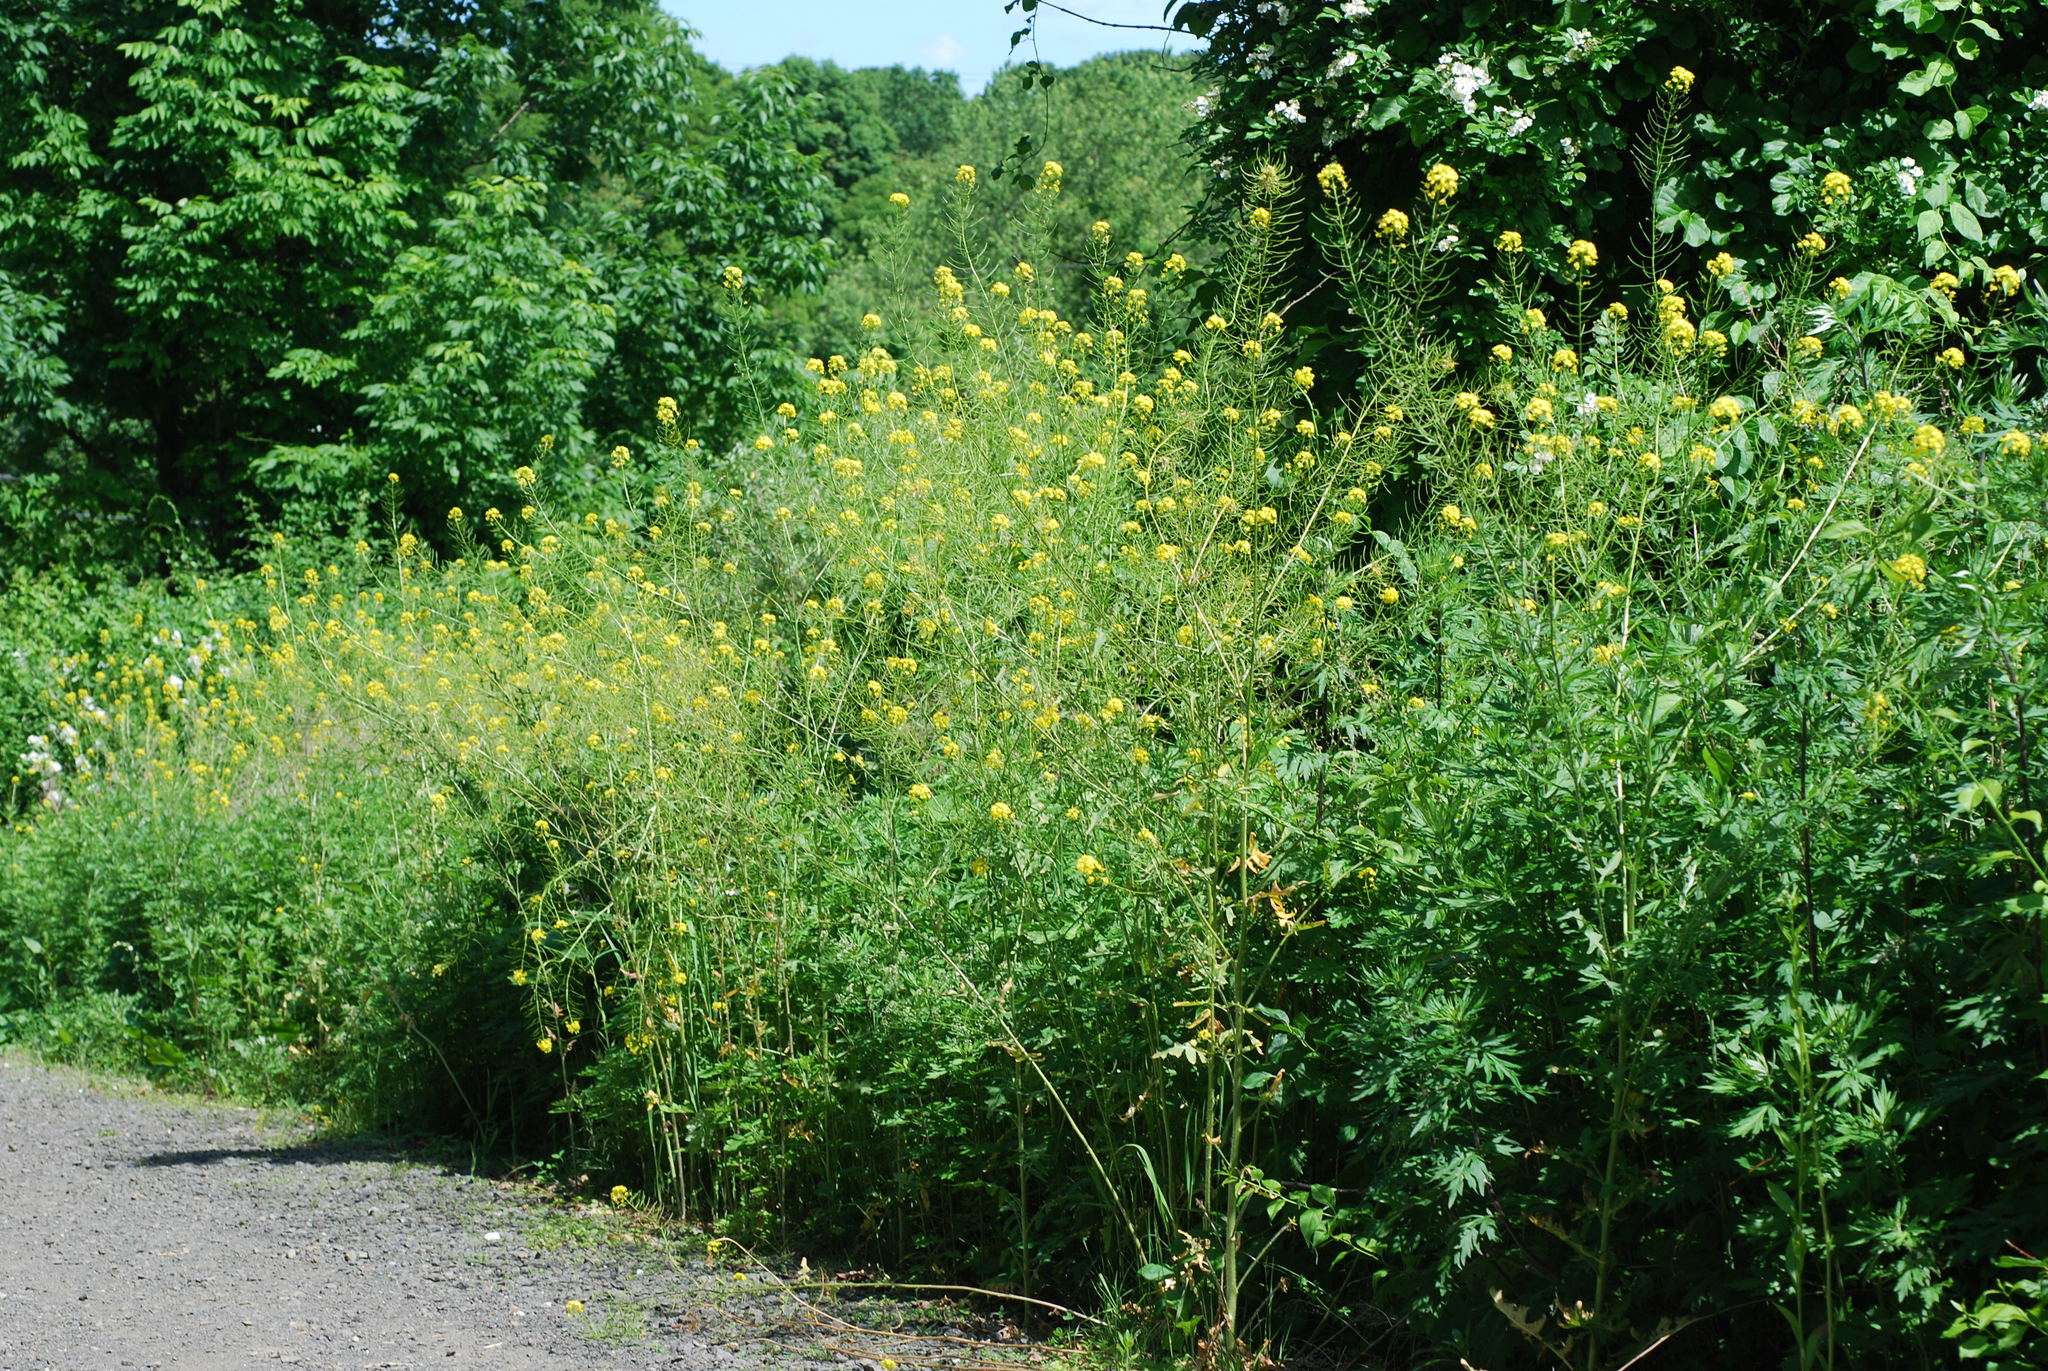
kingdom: Plantae
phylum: Tracheophyta
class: Magnoliopsida
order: Brassicales
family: Brassicaceae
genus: Sisymbrium
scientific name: Sisymbrium loeselii
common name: False london-rocket
